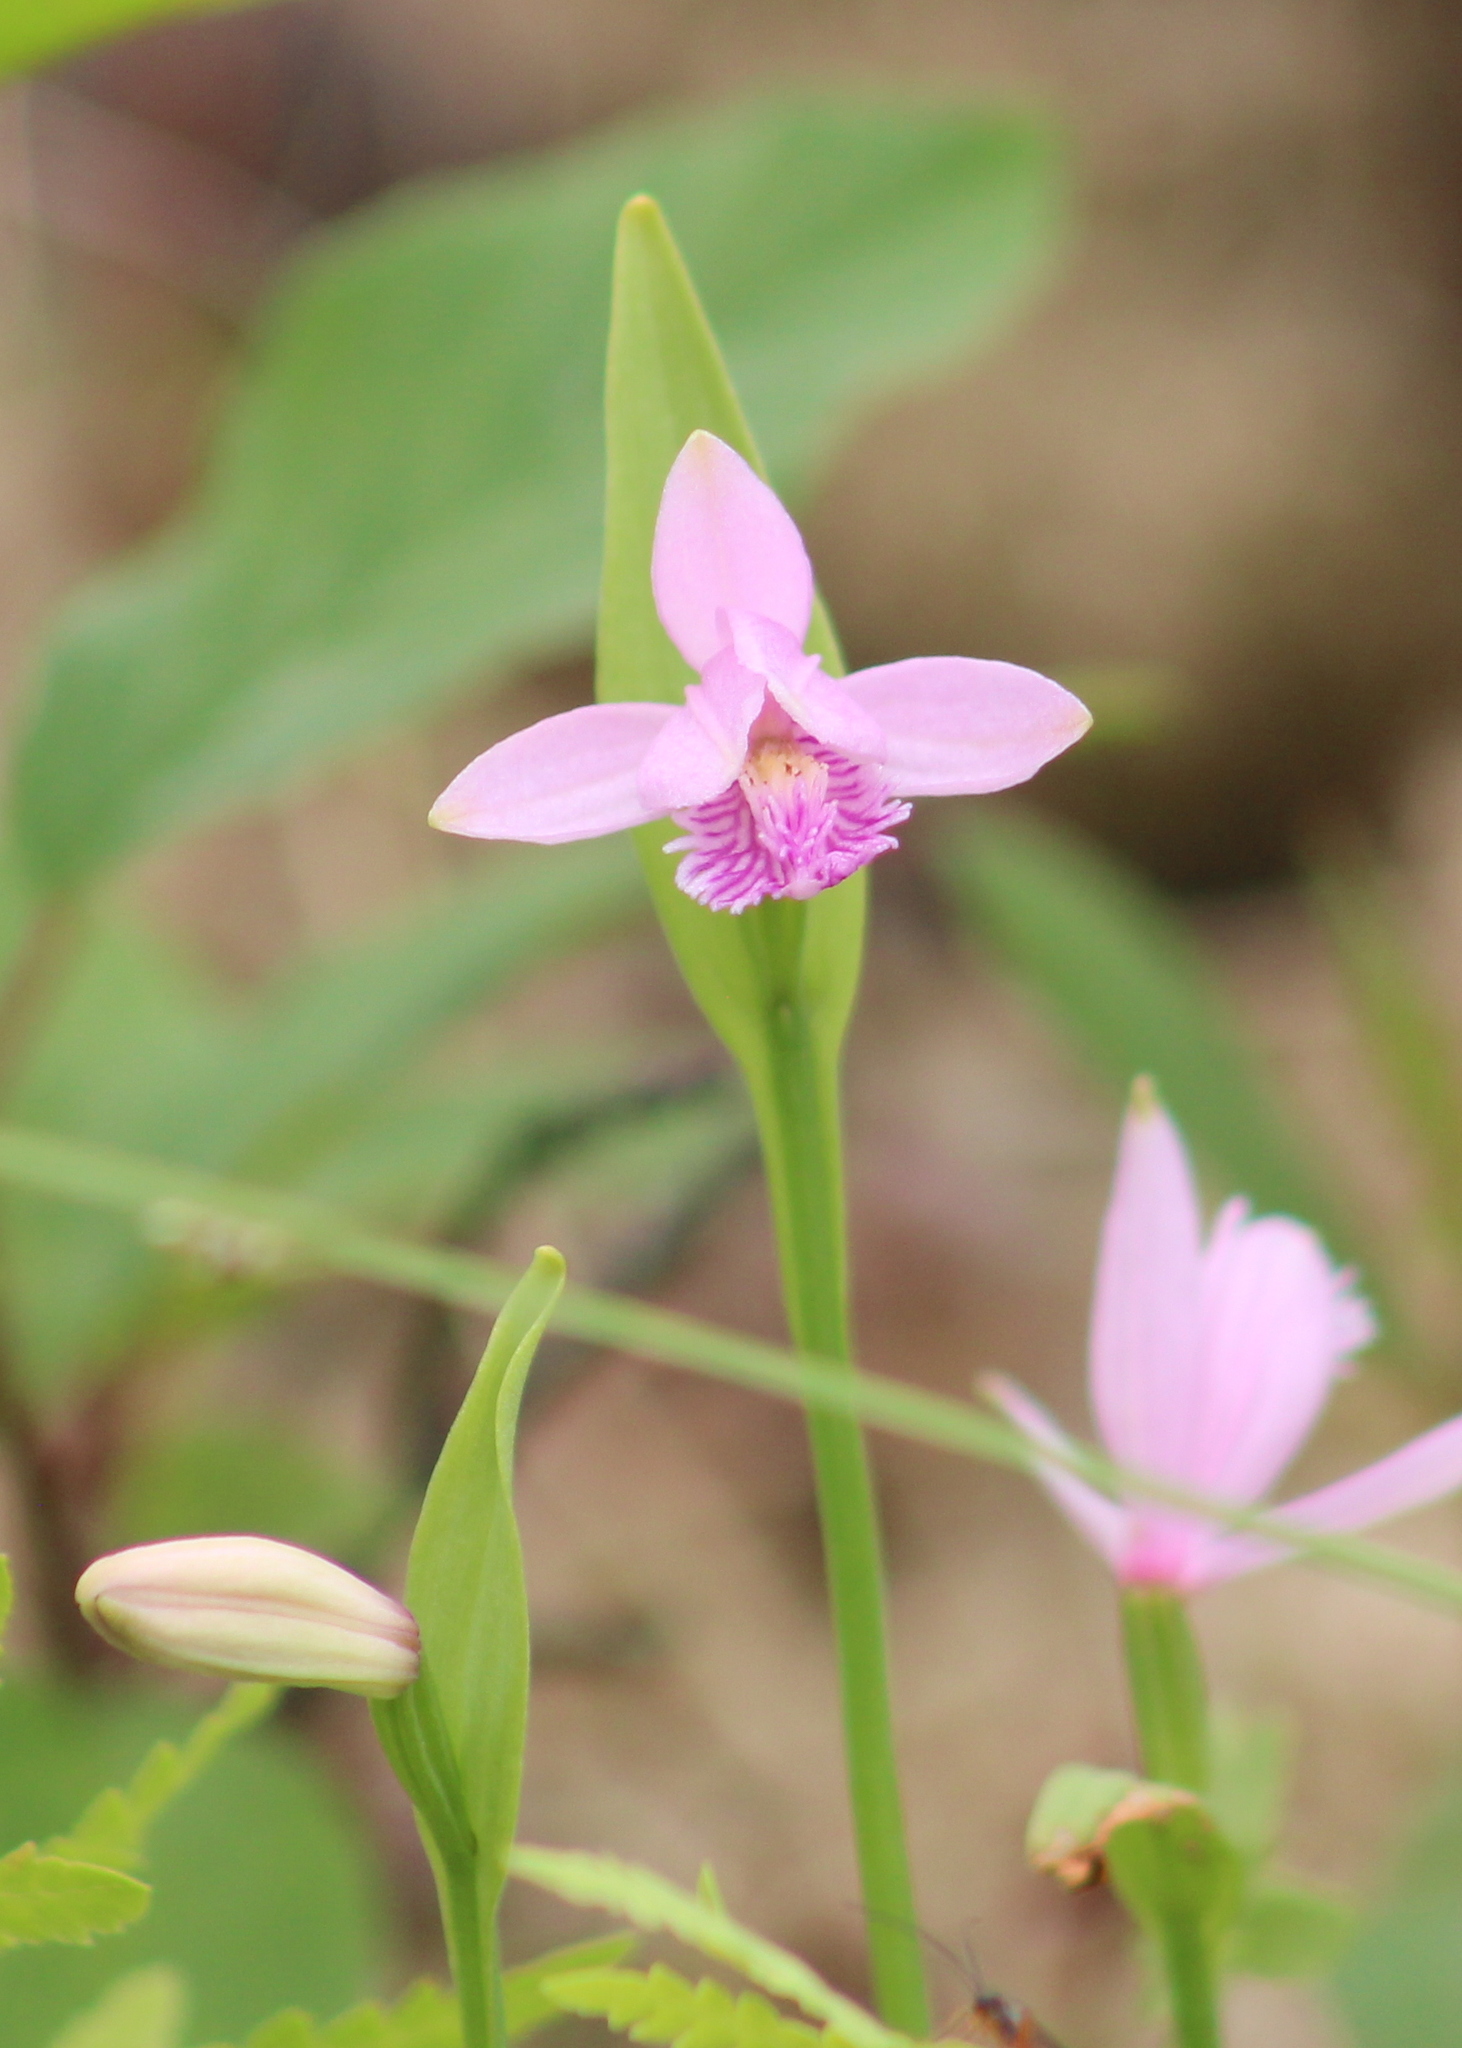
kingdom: Plantae
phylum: Tracheophyta
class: Liliopsida
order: Asparagales
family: Orchidaceae
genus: Pogonia
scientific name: Pogonia ophioglossoides
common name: Rose pogonia
